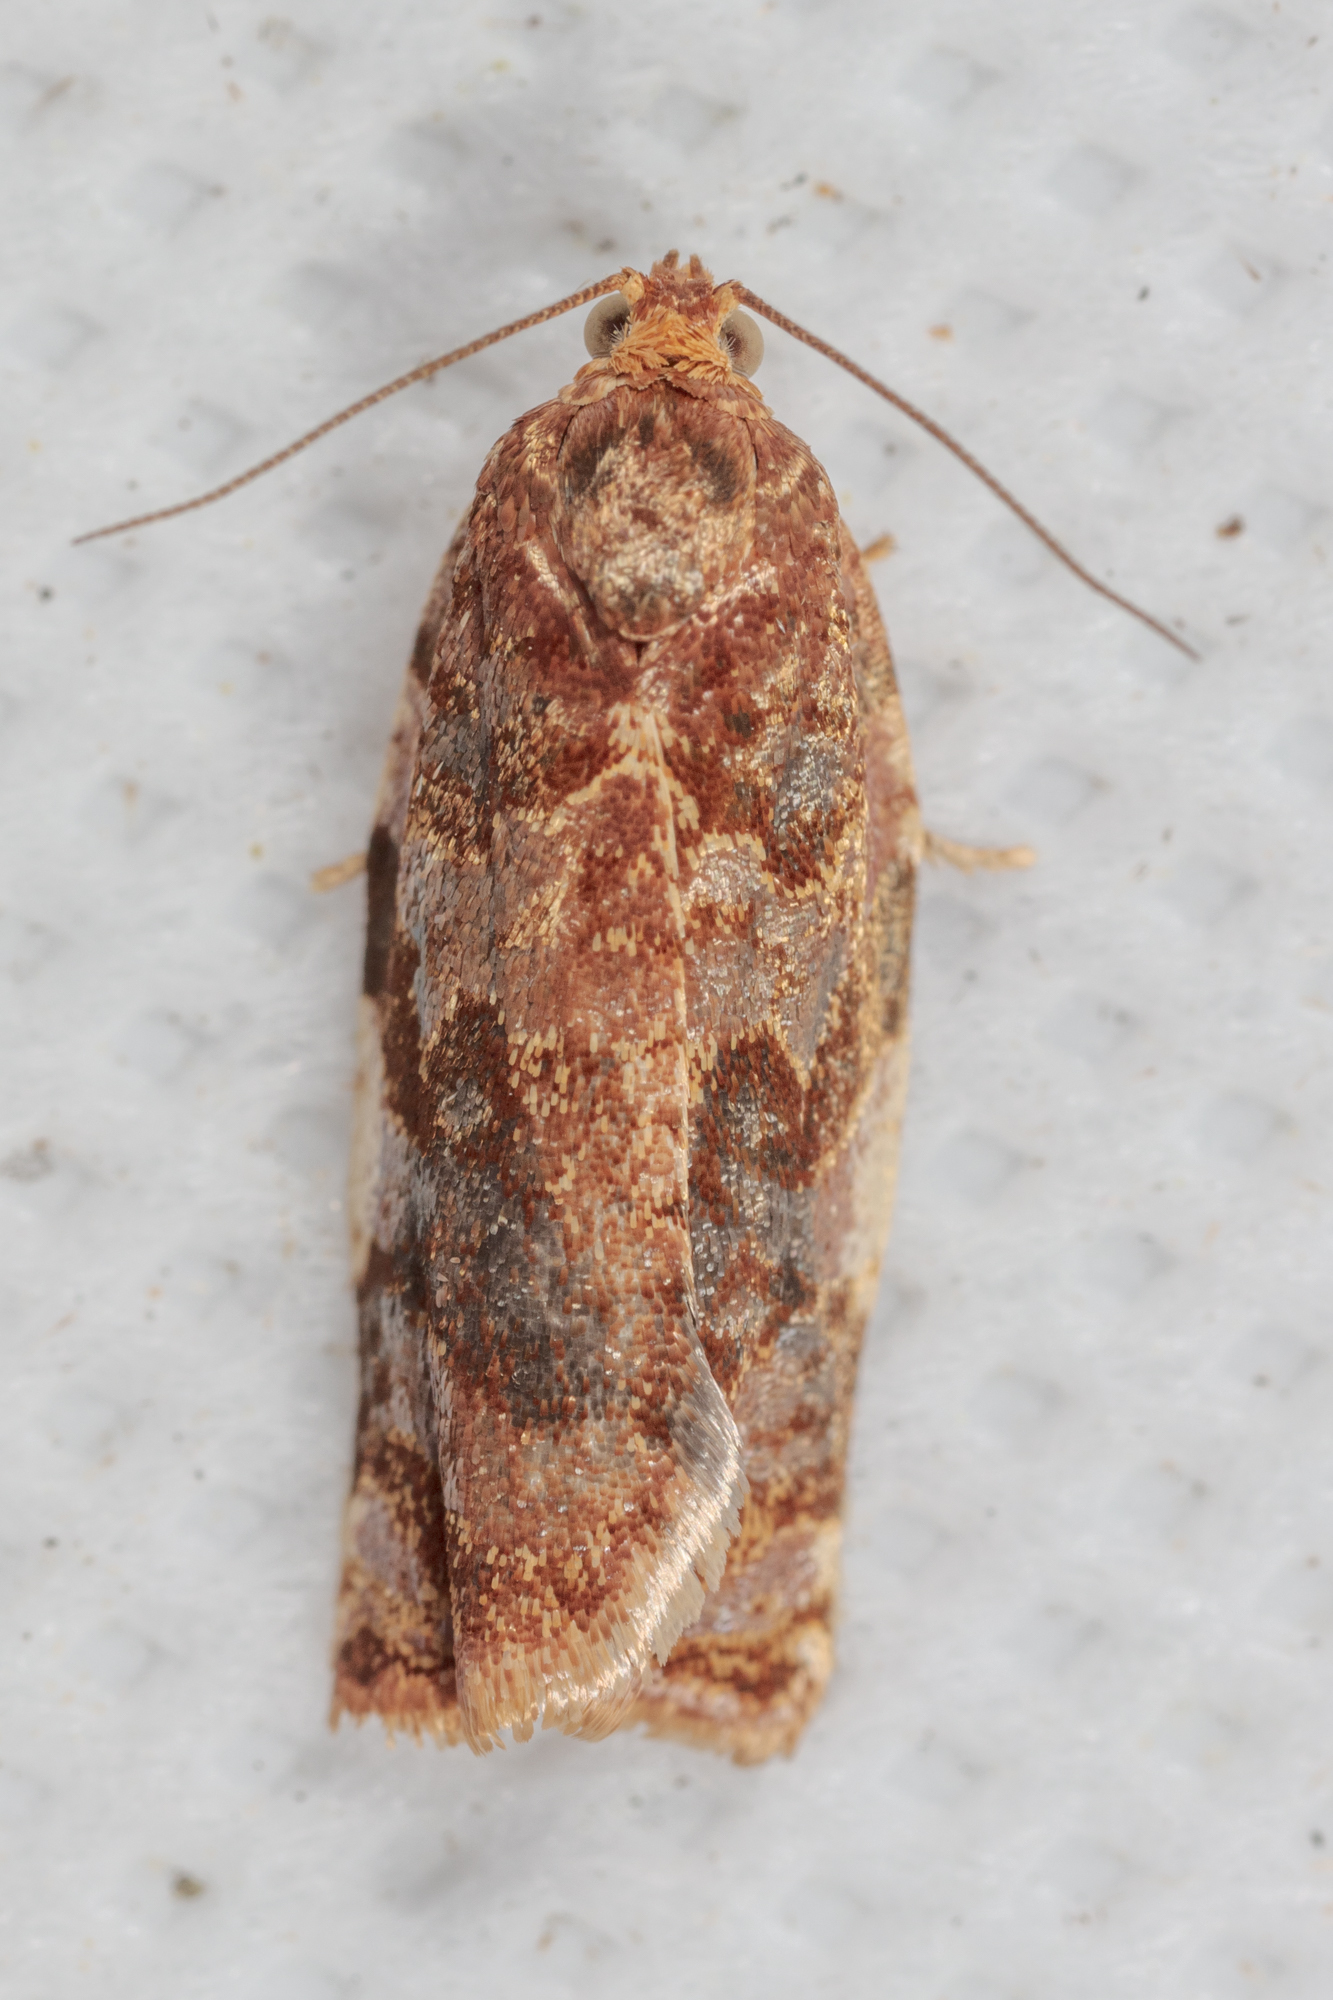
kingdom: Animalia
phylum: Arthropoda
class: Insecta
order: Lepidoptera
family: Tortricidae
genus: Archips
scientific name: Archips argyrospila
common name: Fruit-tree leafroller moth
